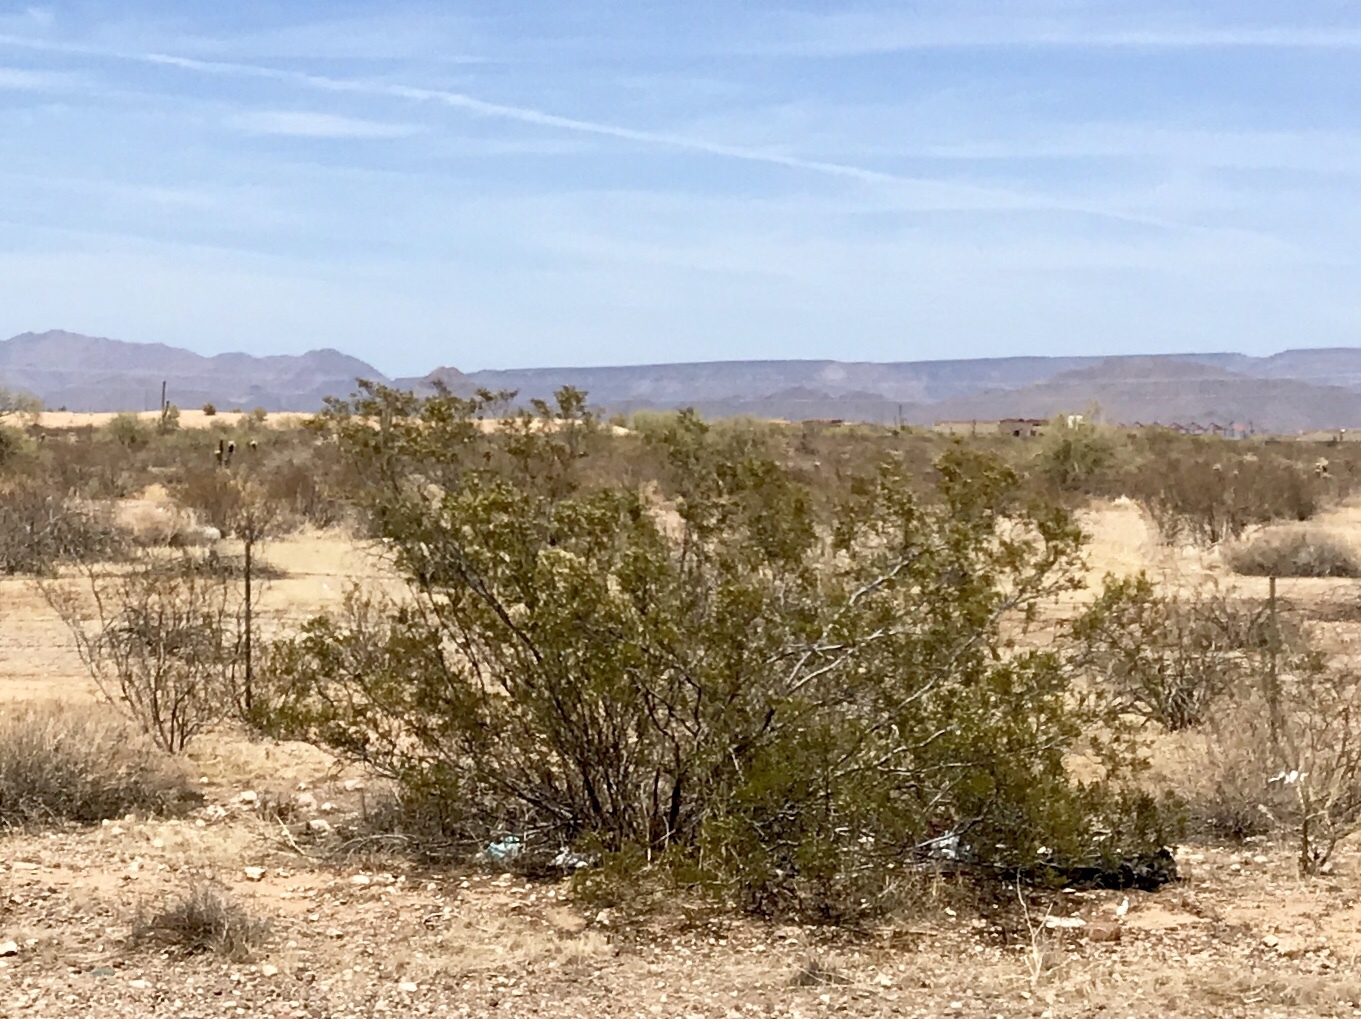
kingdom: Plantae
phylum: Tracheophyta
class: Magnoliopsida
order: Zygophyllales
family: Zygophyllaceae
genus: Larrea
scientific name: Larrea tridentata
